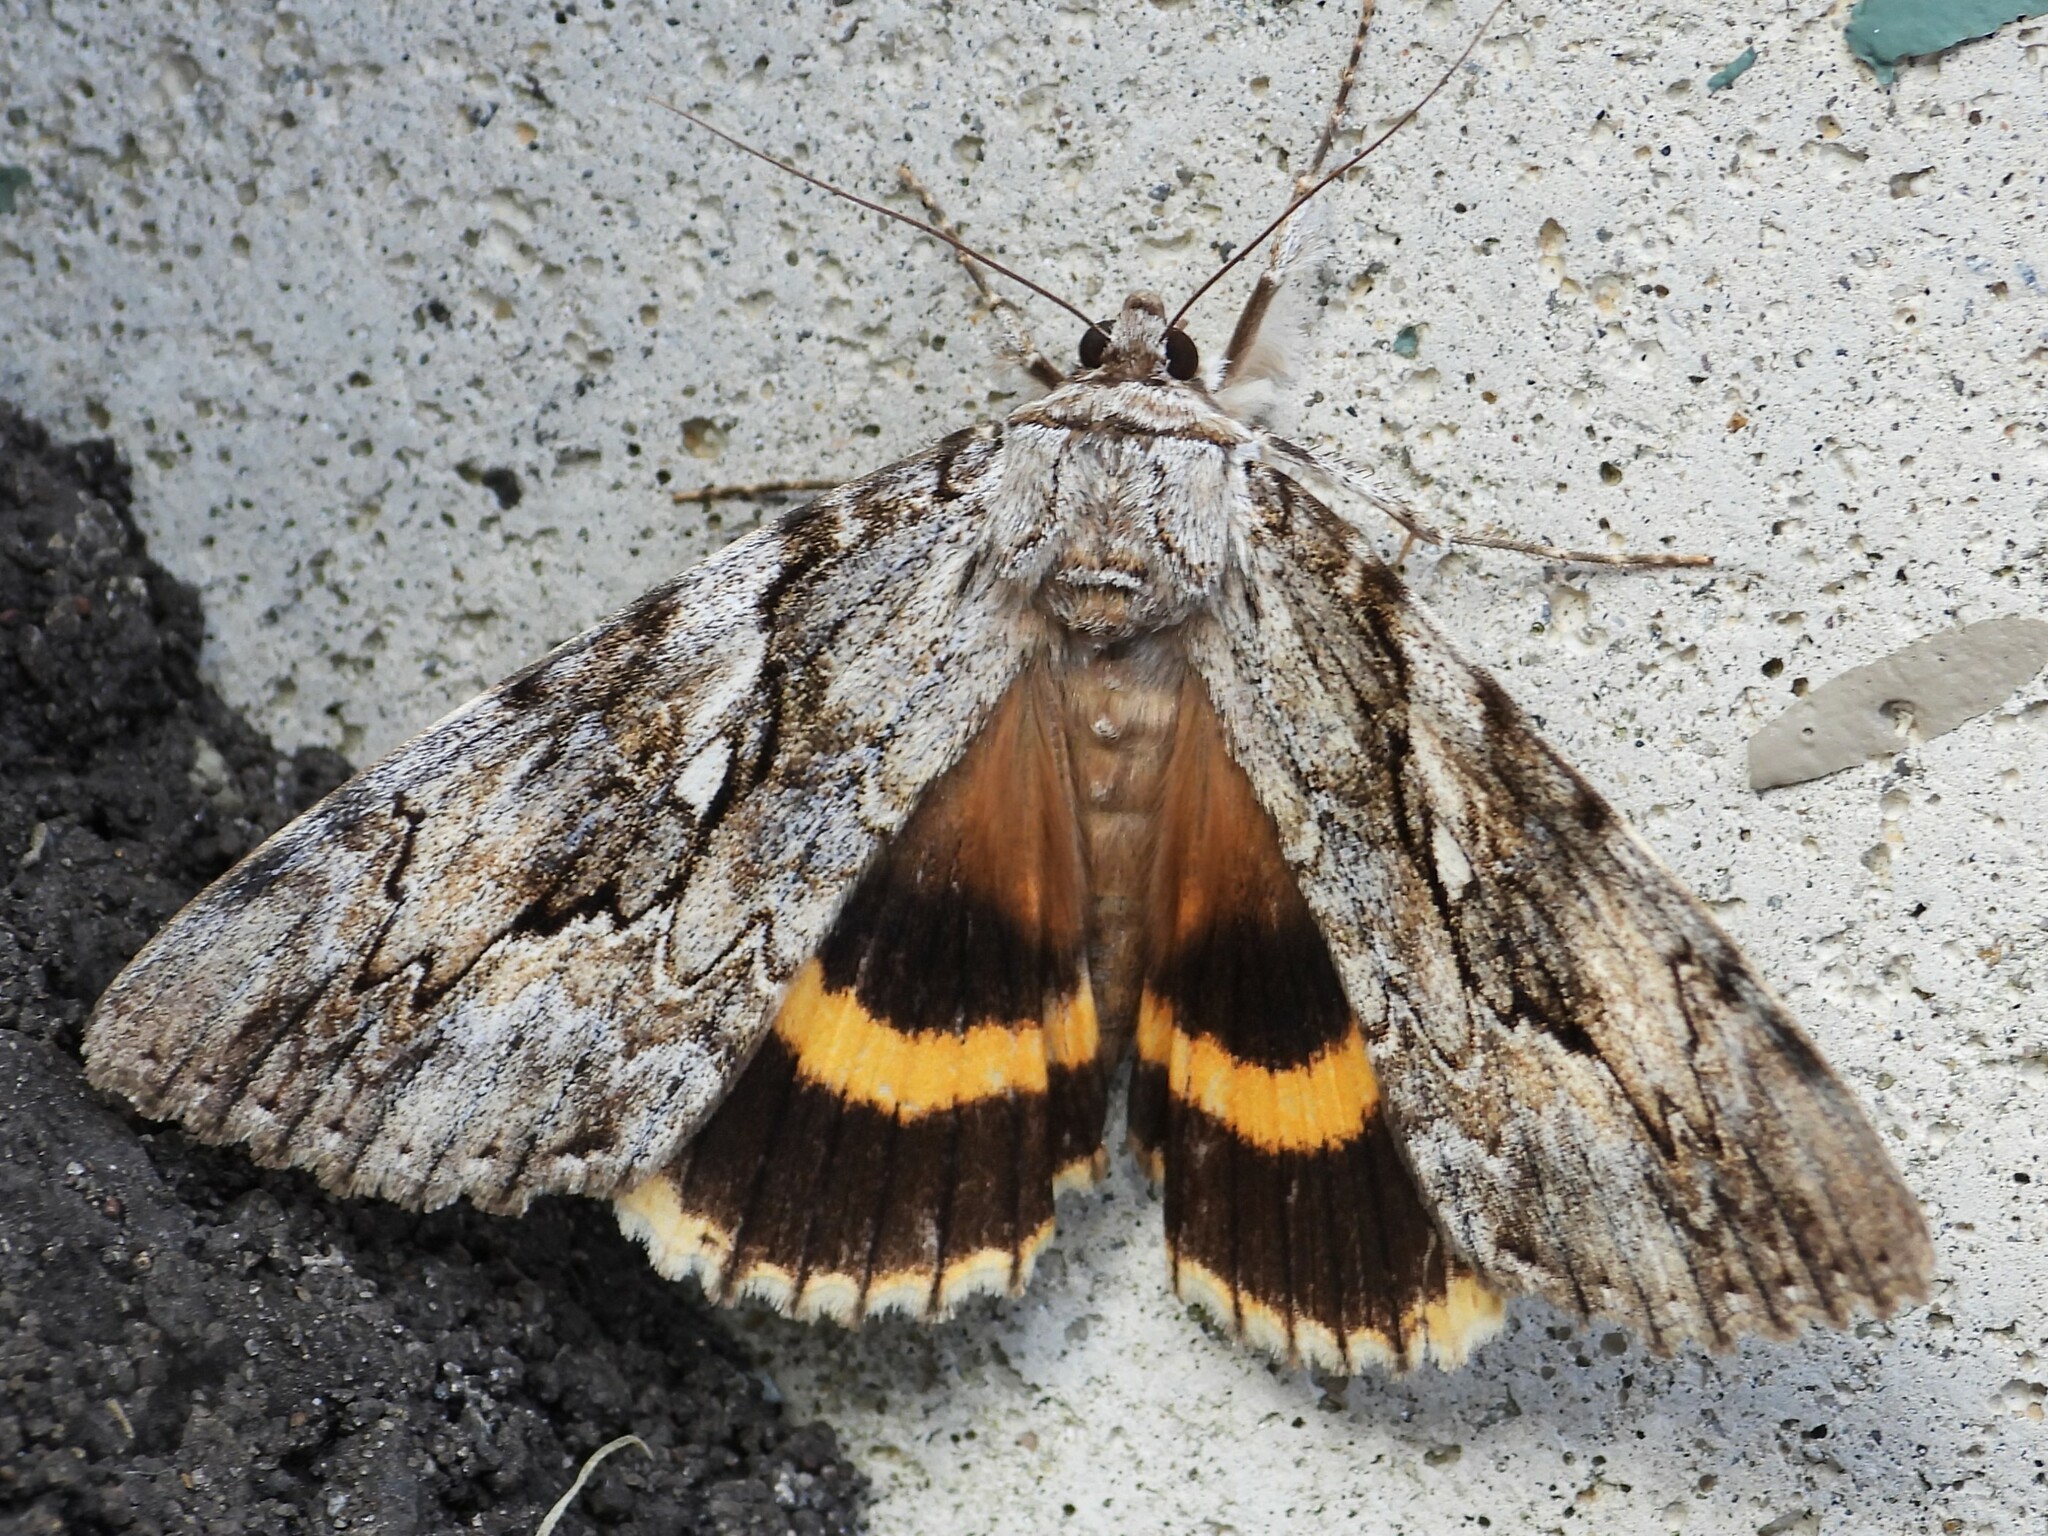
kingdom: Animalia
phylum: Arthropoda
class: Insecta
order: Lepidoptera
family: Erebidae
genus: Catocala
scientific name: Catocala cerogama
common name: Yellow banded underwing
